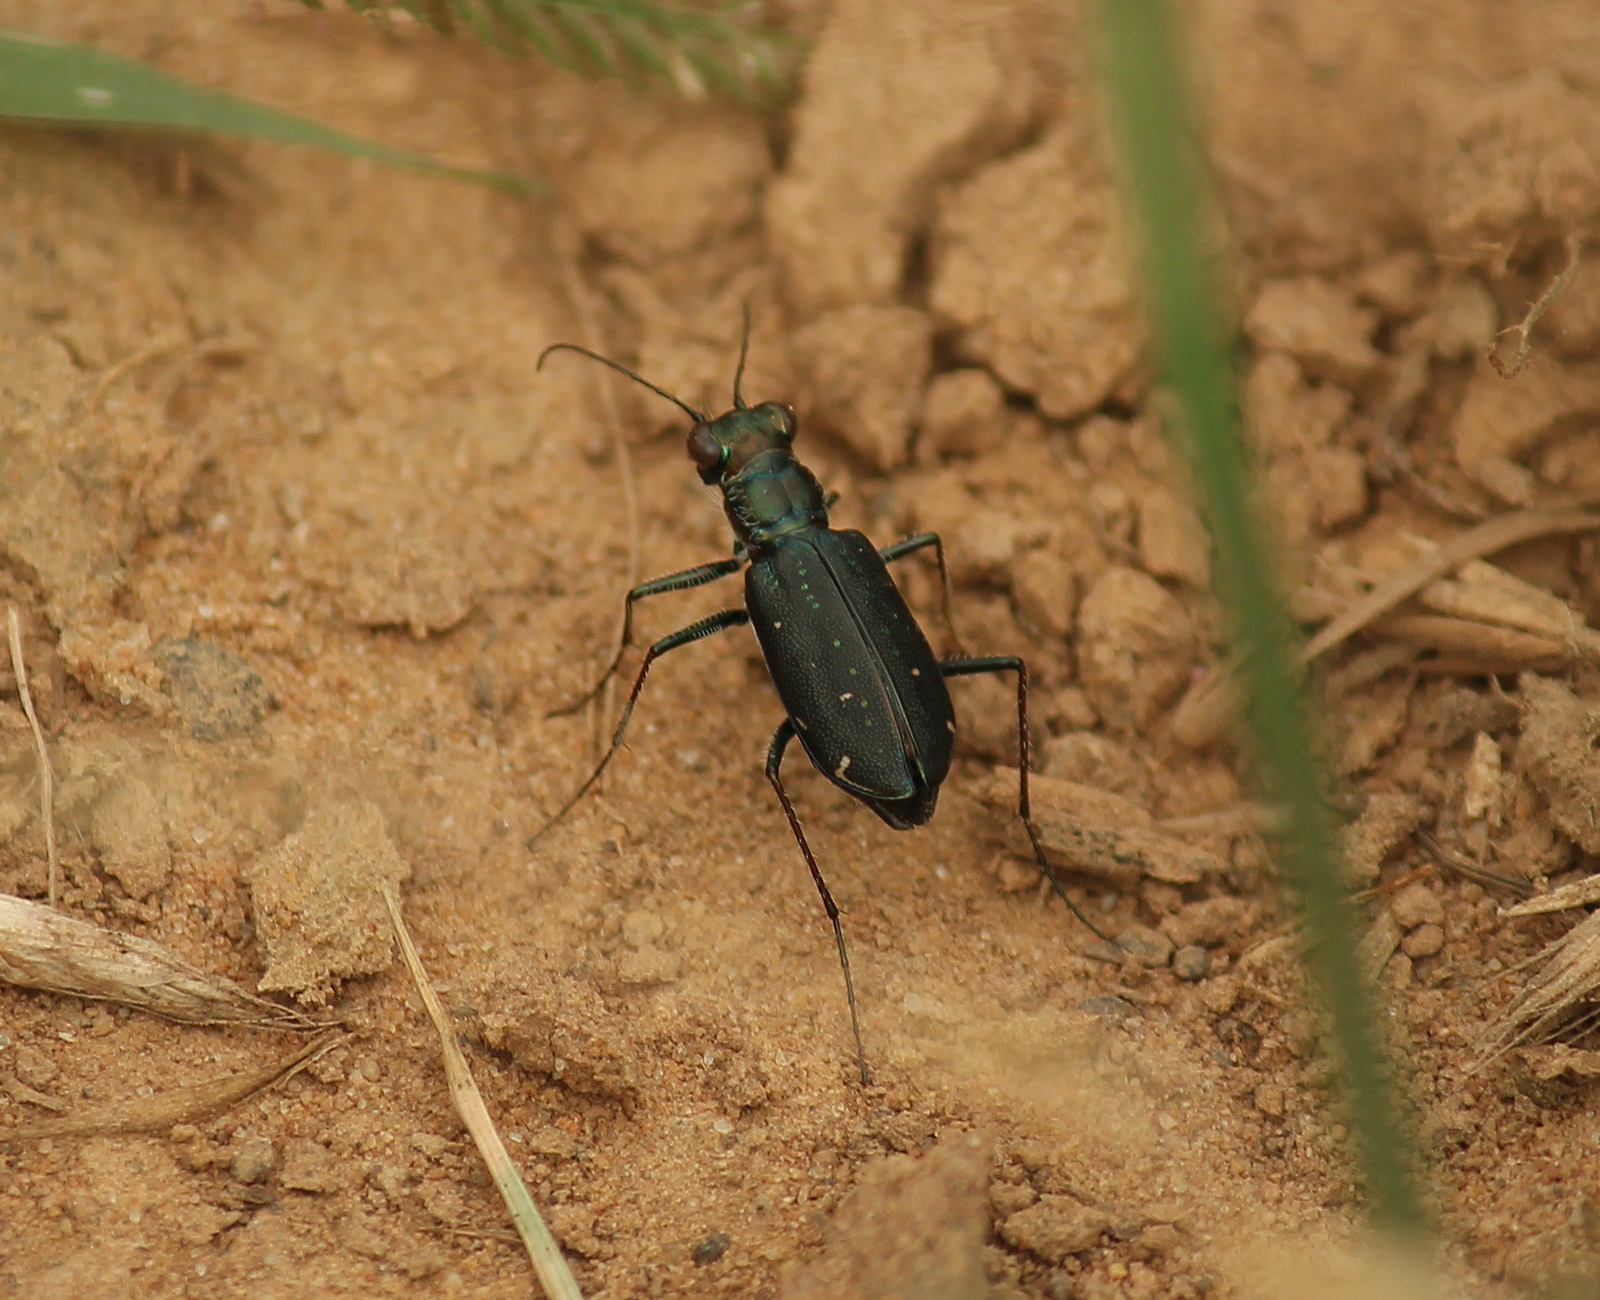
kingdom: Animalia
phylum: Arthropoda
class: Insecta
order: Coleoptera
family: Carabidae
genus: Cicindela
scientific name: Cicindela punctulata
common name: Punctured tiger beetle
